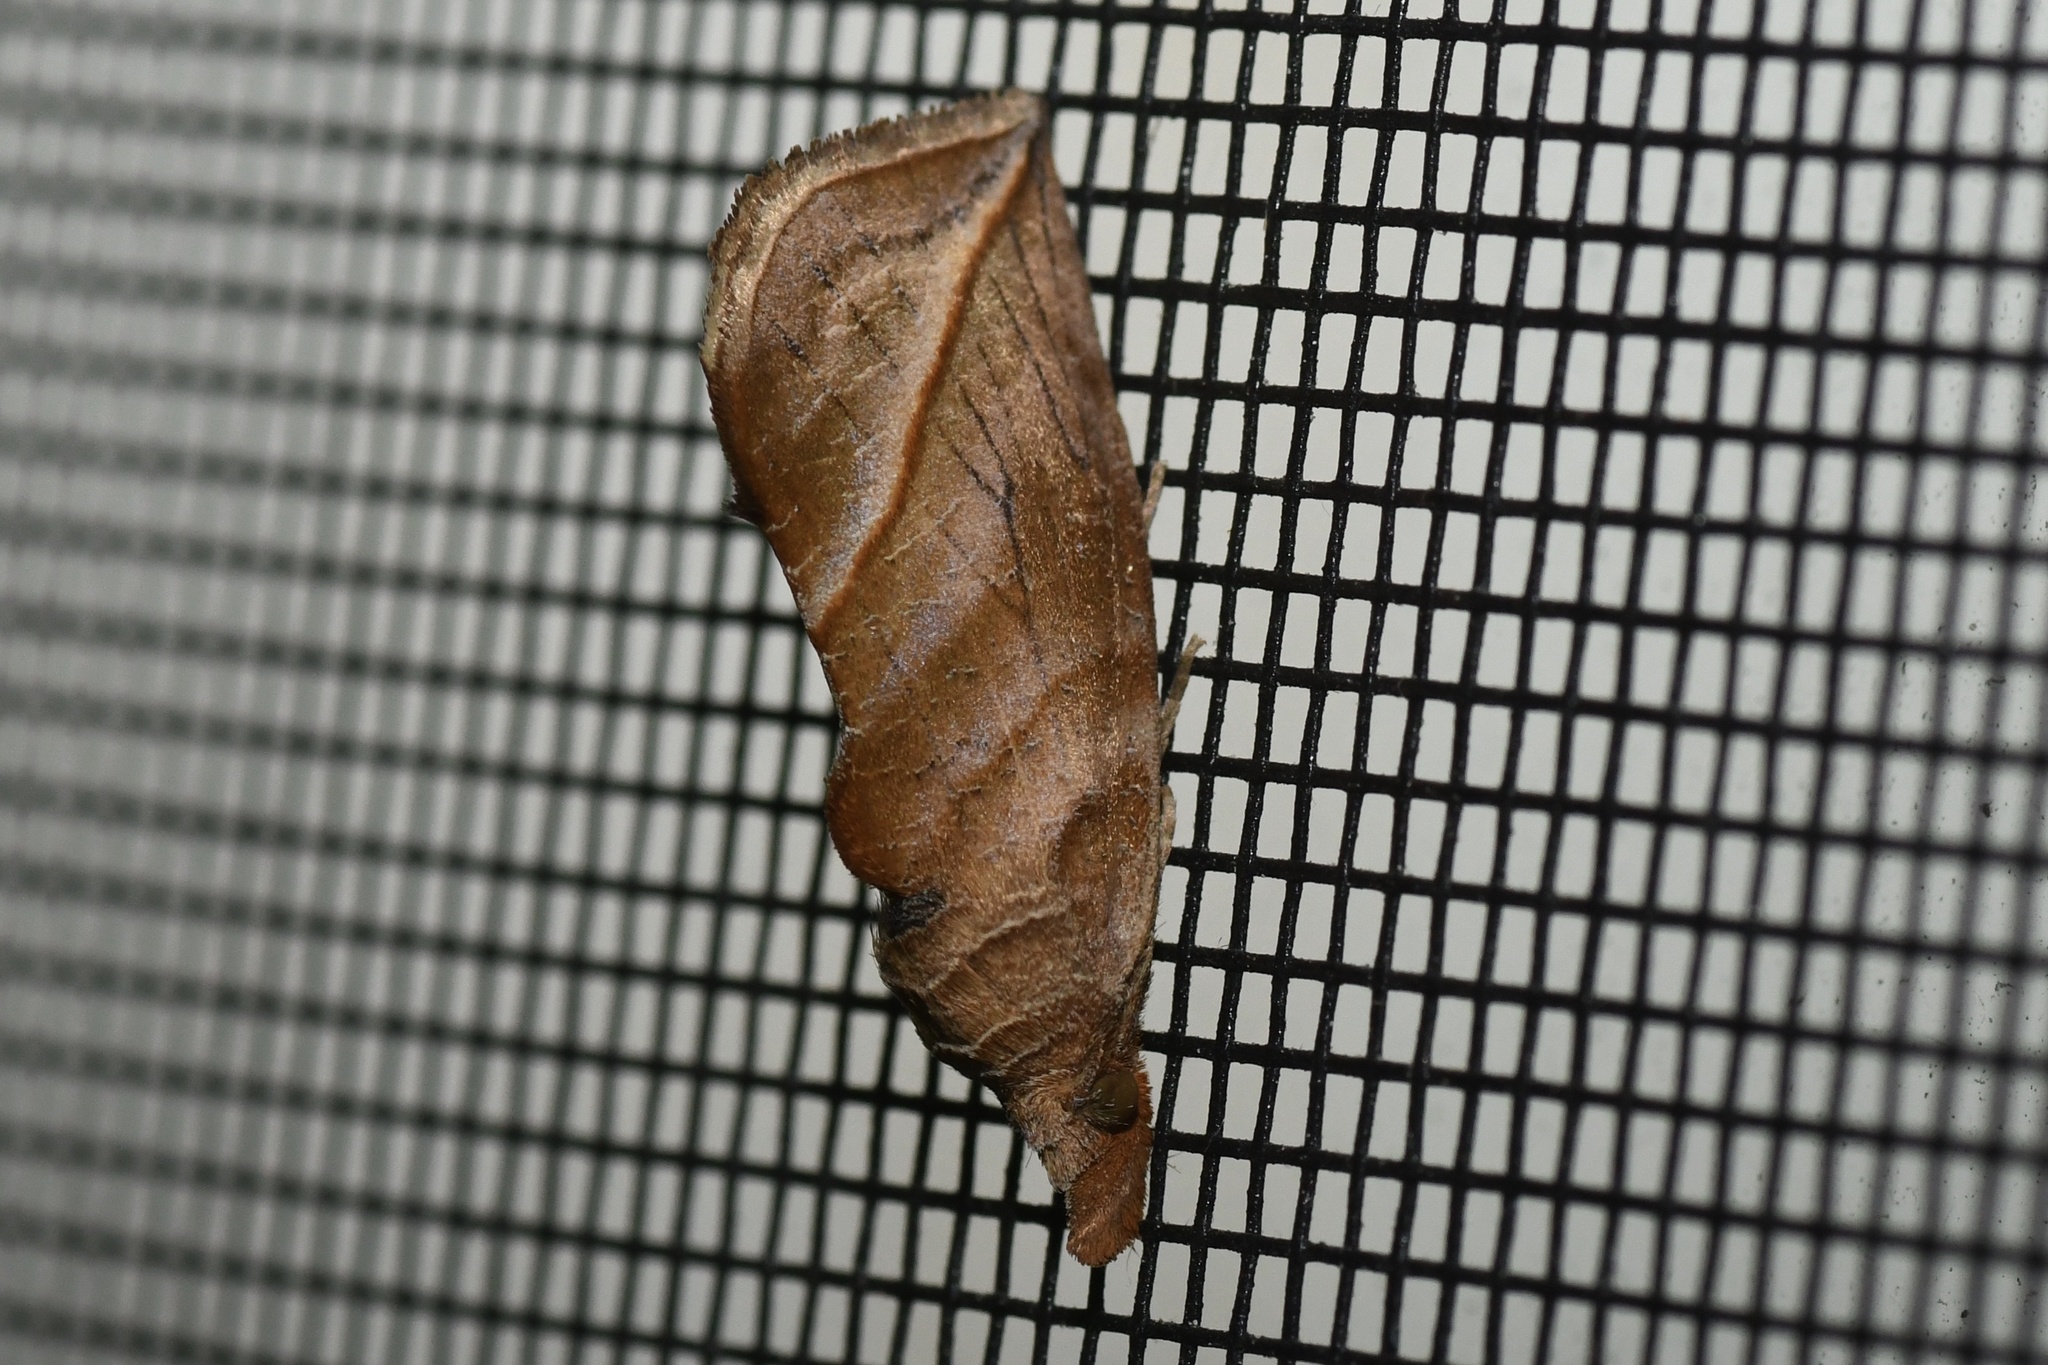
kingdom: Animalia
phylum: Arthropoda
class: Insecta
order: Lepidoptera
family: Erebidae
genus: Calyptra
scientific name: Calyptra canadensis
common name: Canadian owlet
